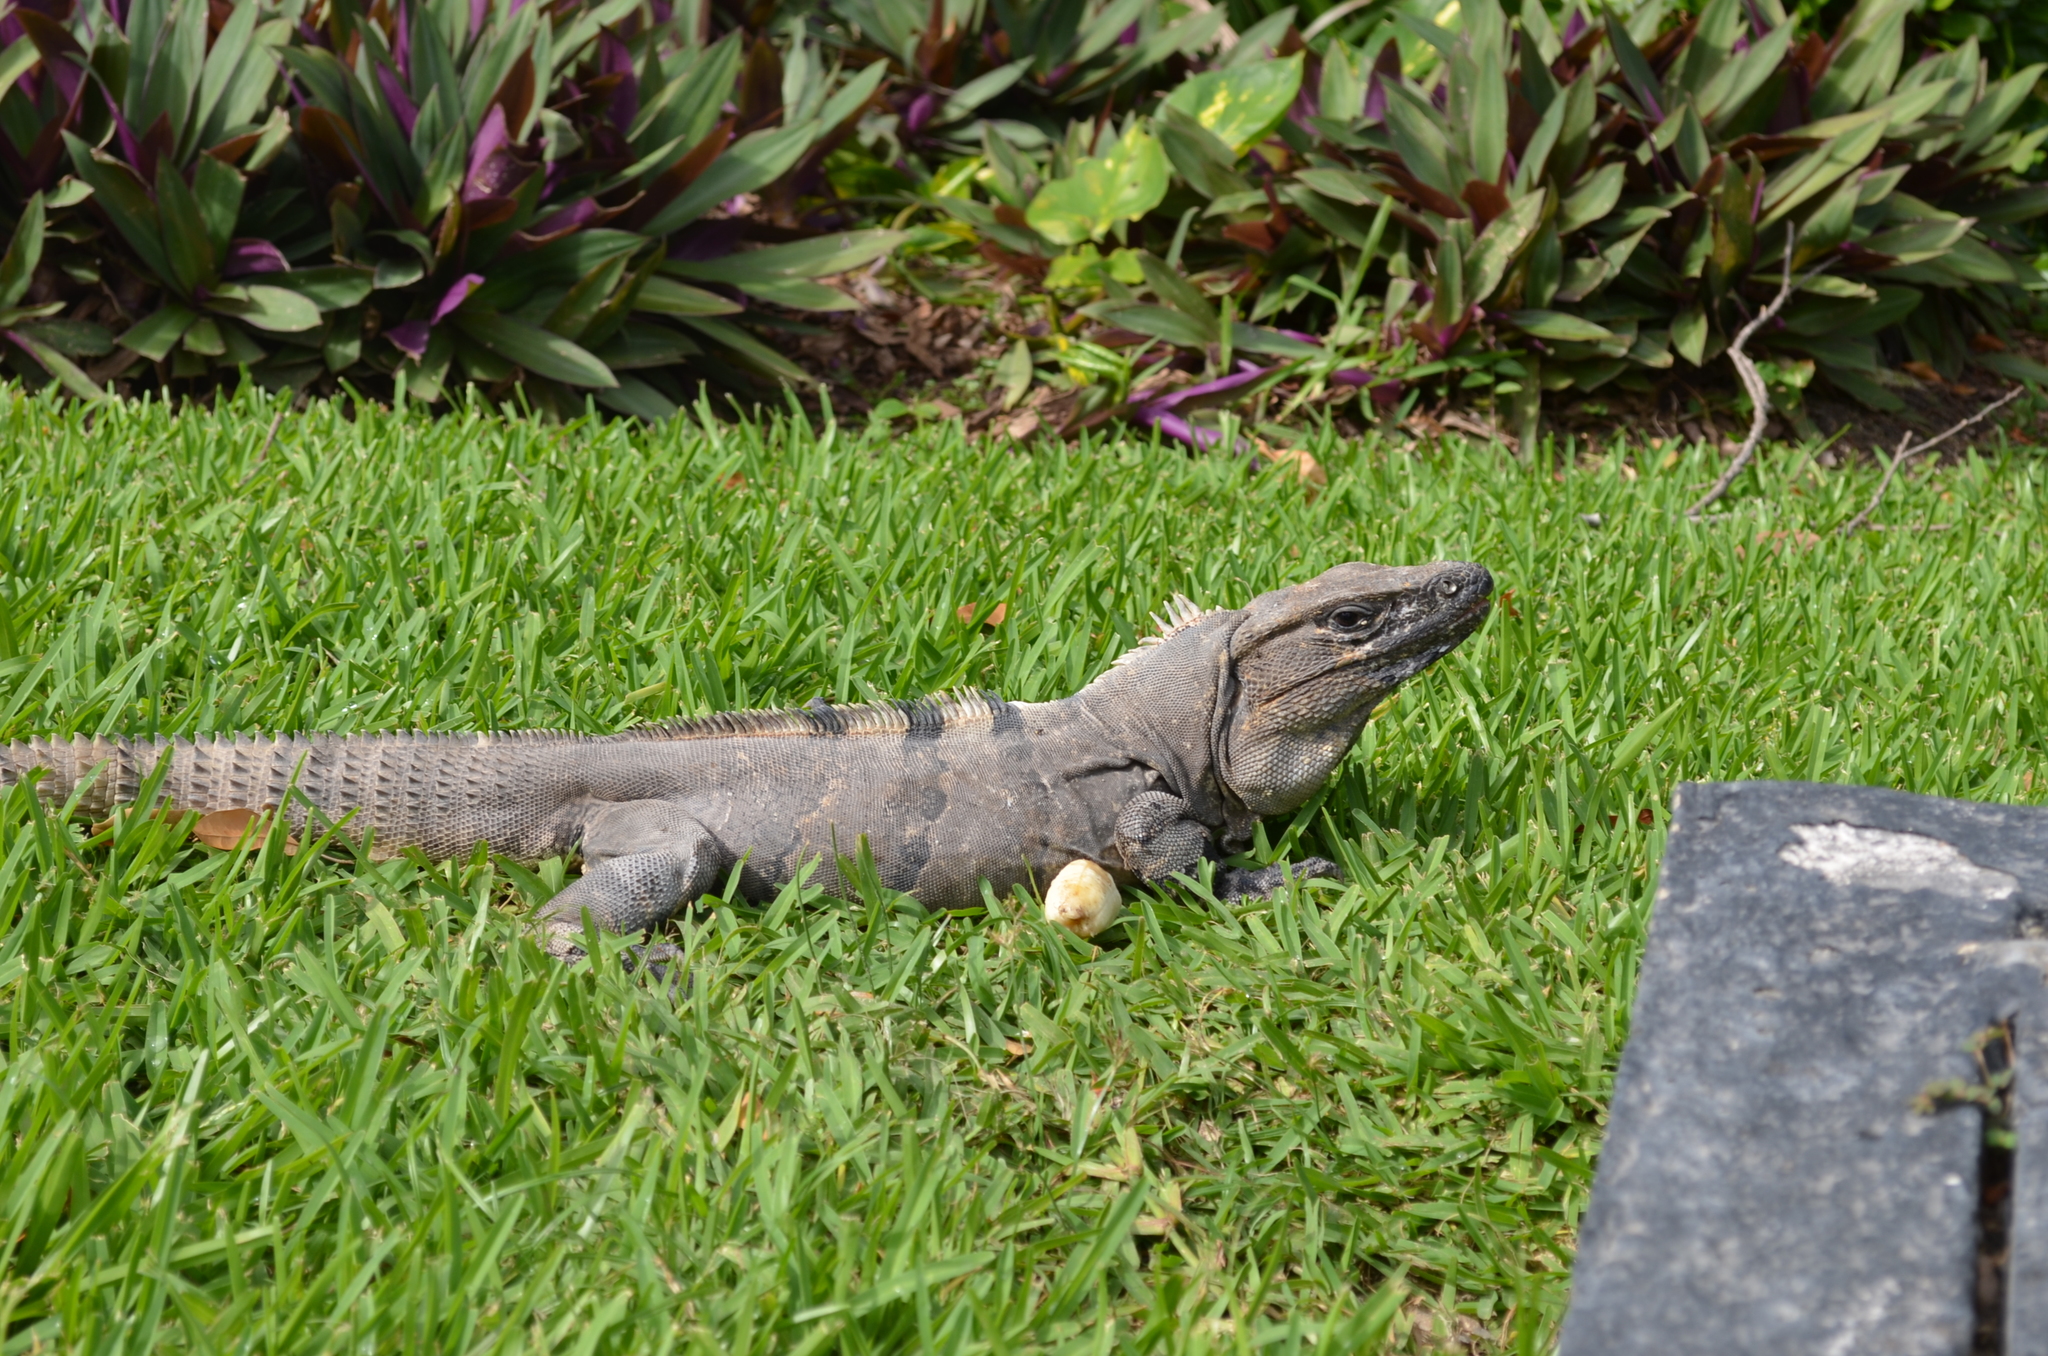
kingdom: Animalia
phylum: Chordata
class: Squamata
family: Iguanidae
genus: Ctenosaura
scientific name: Ctenosaura similis
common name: Black spiny-tailed iguana
